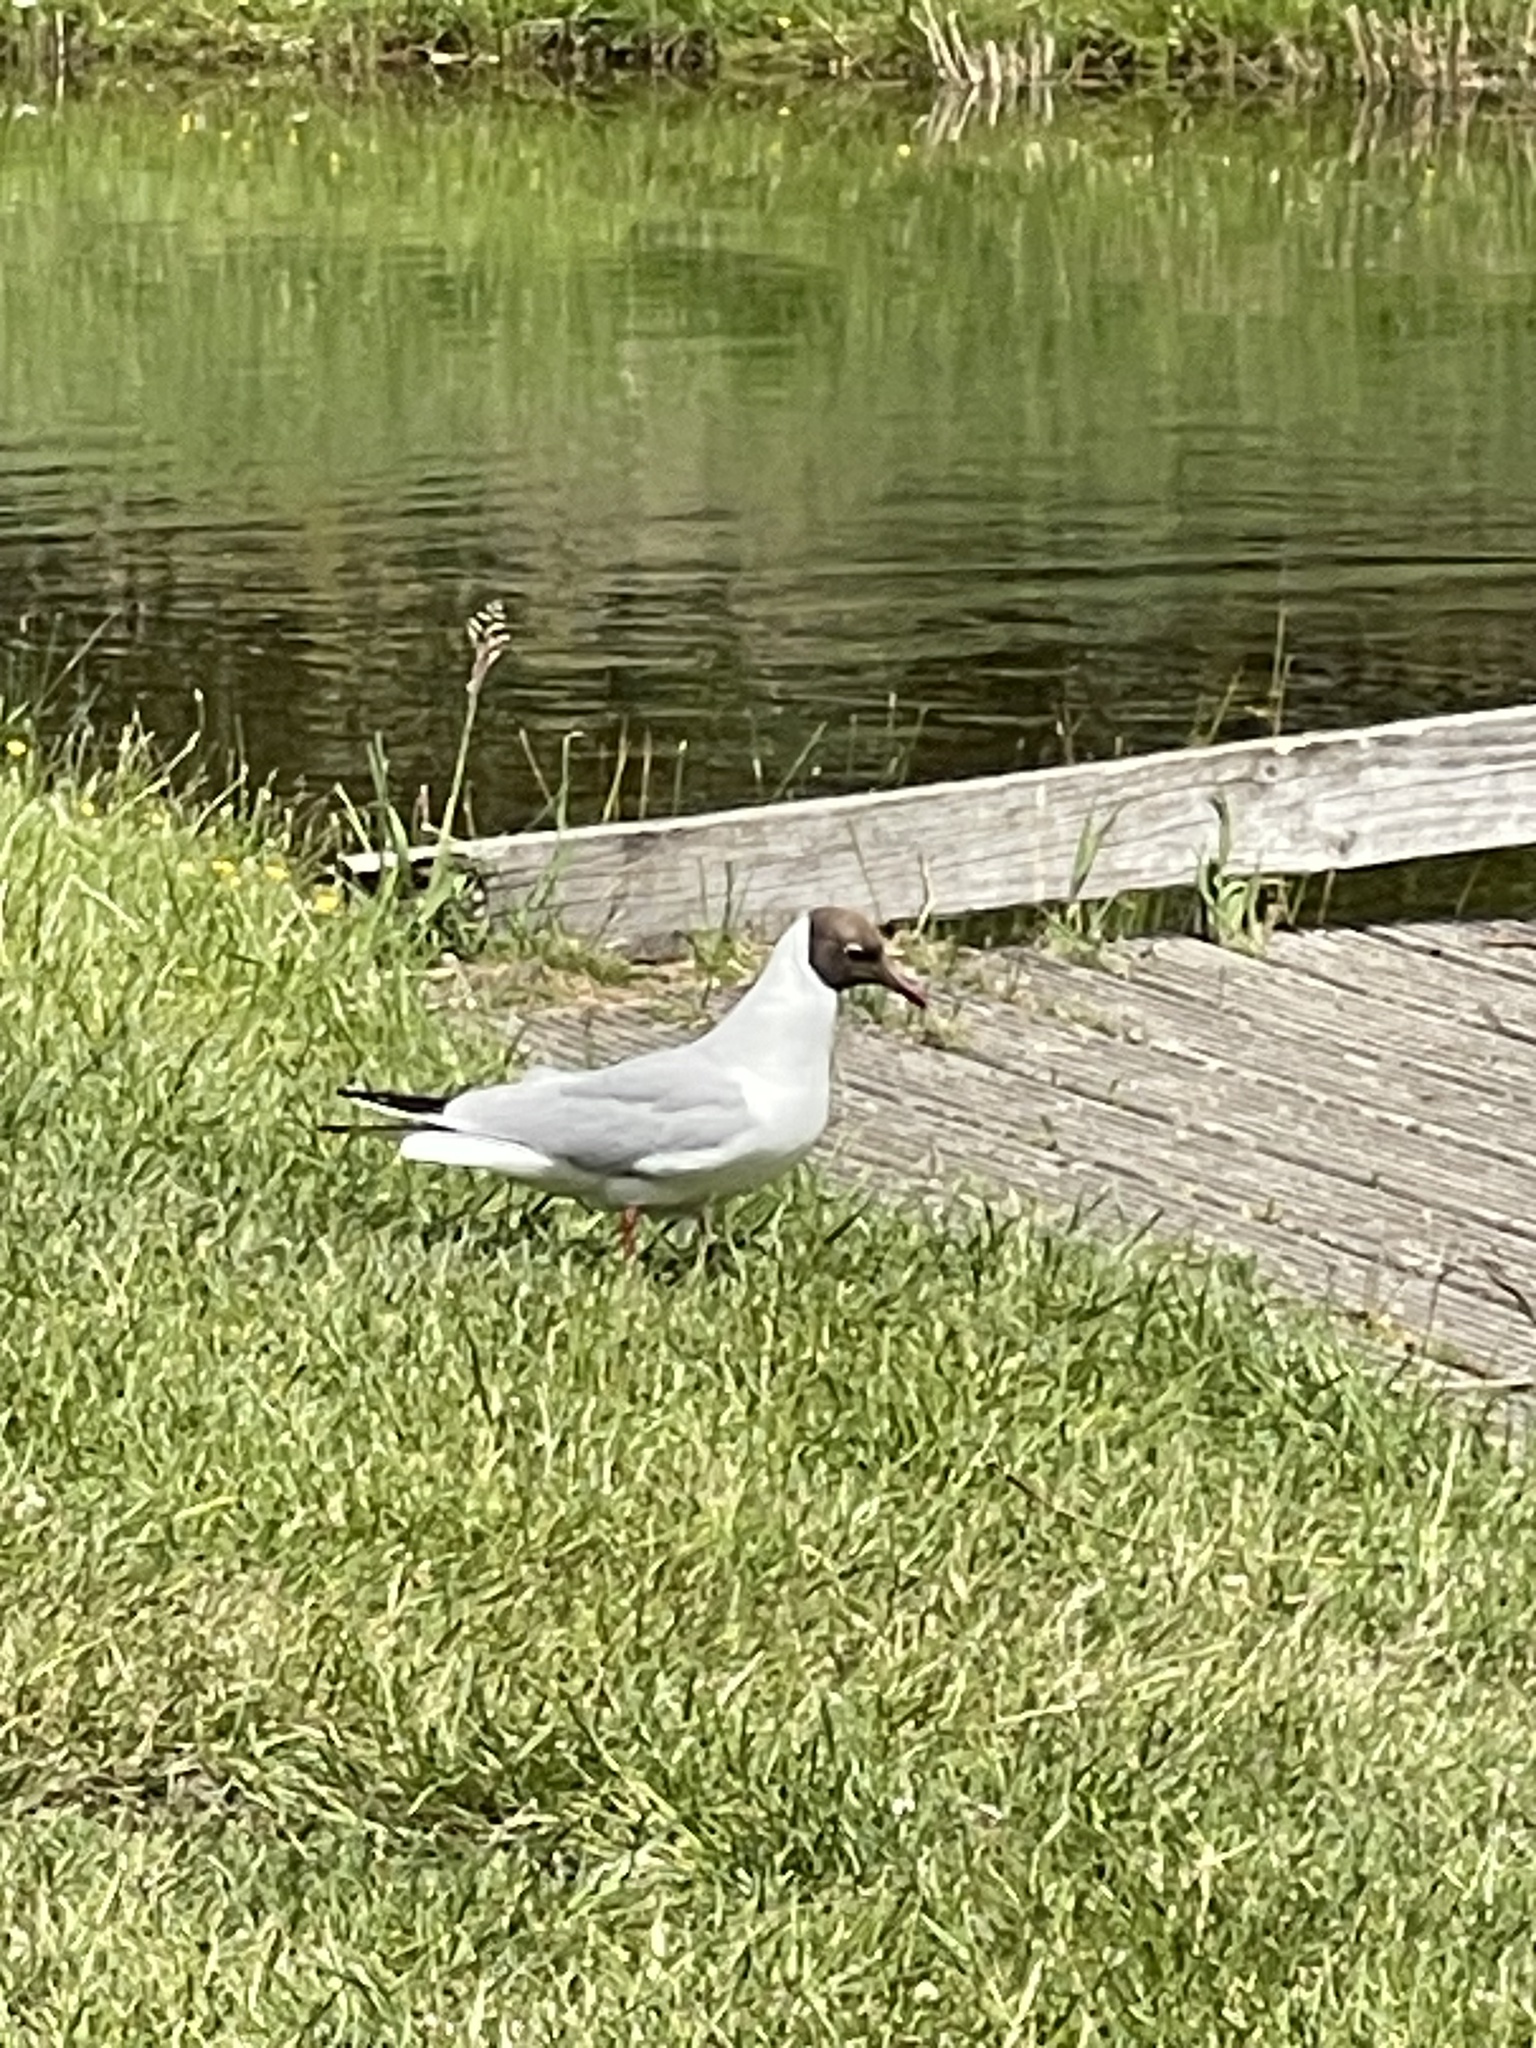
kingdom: Animalia
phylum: Chordata
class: Aves
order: Charadriiformes
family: Laridae
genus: Chroicocephalus
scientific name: Chroicocephalus ridibundus
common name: Black-headed gull
